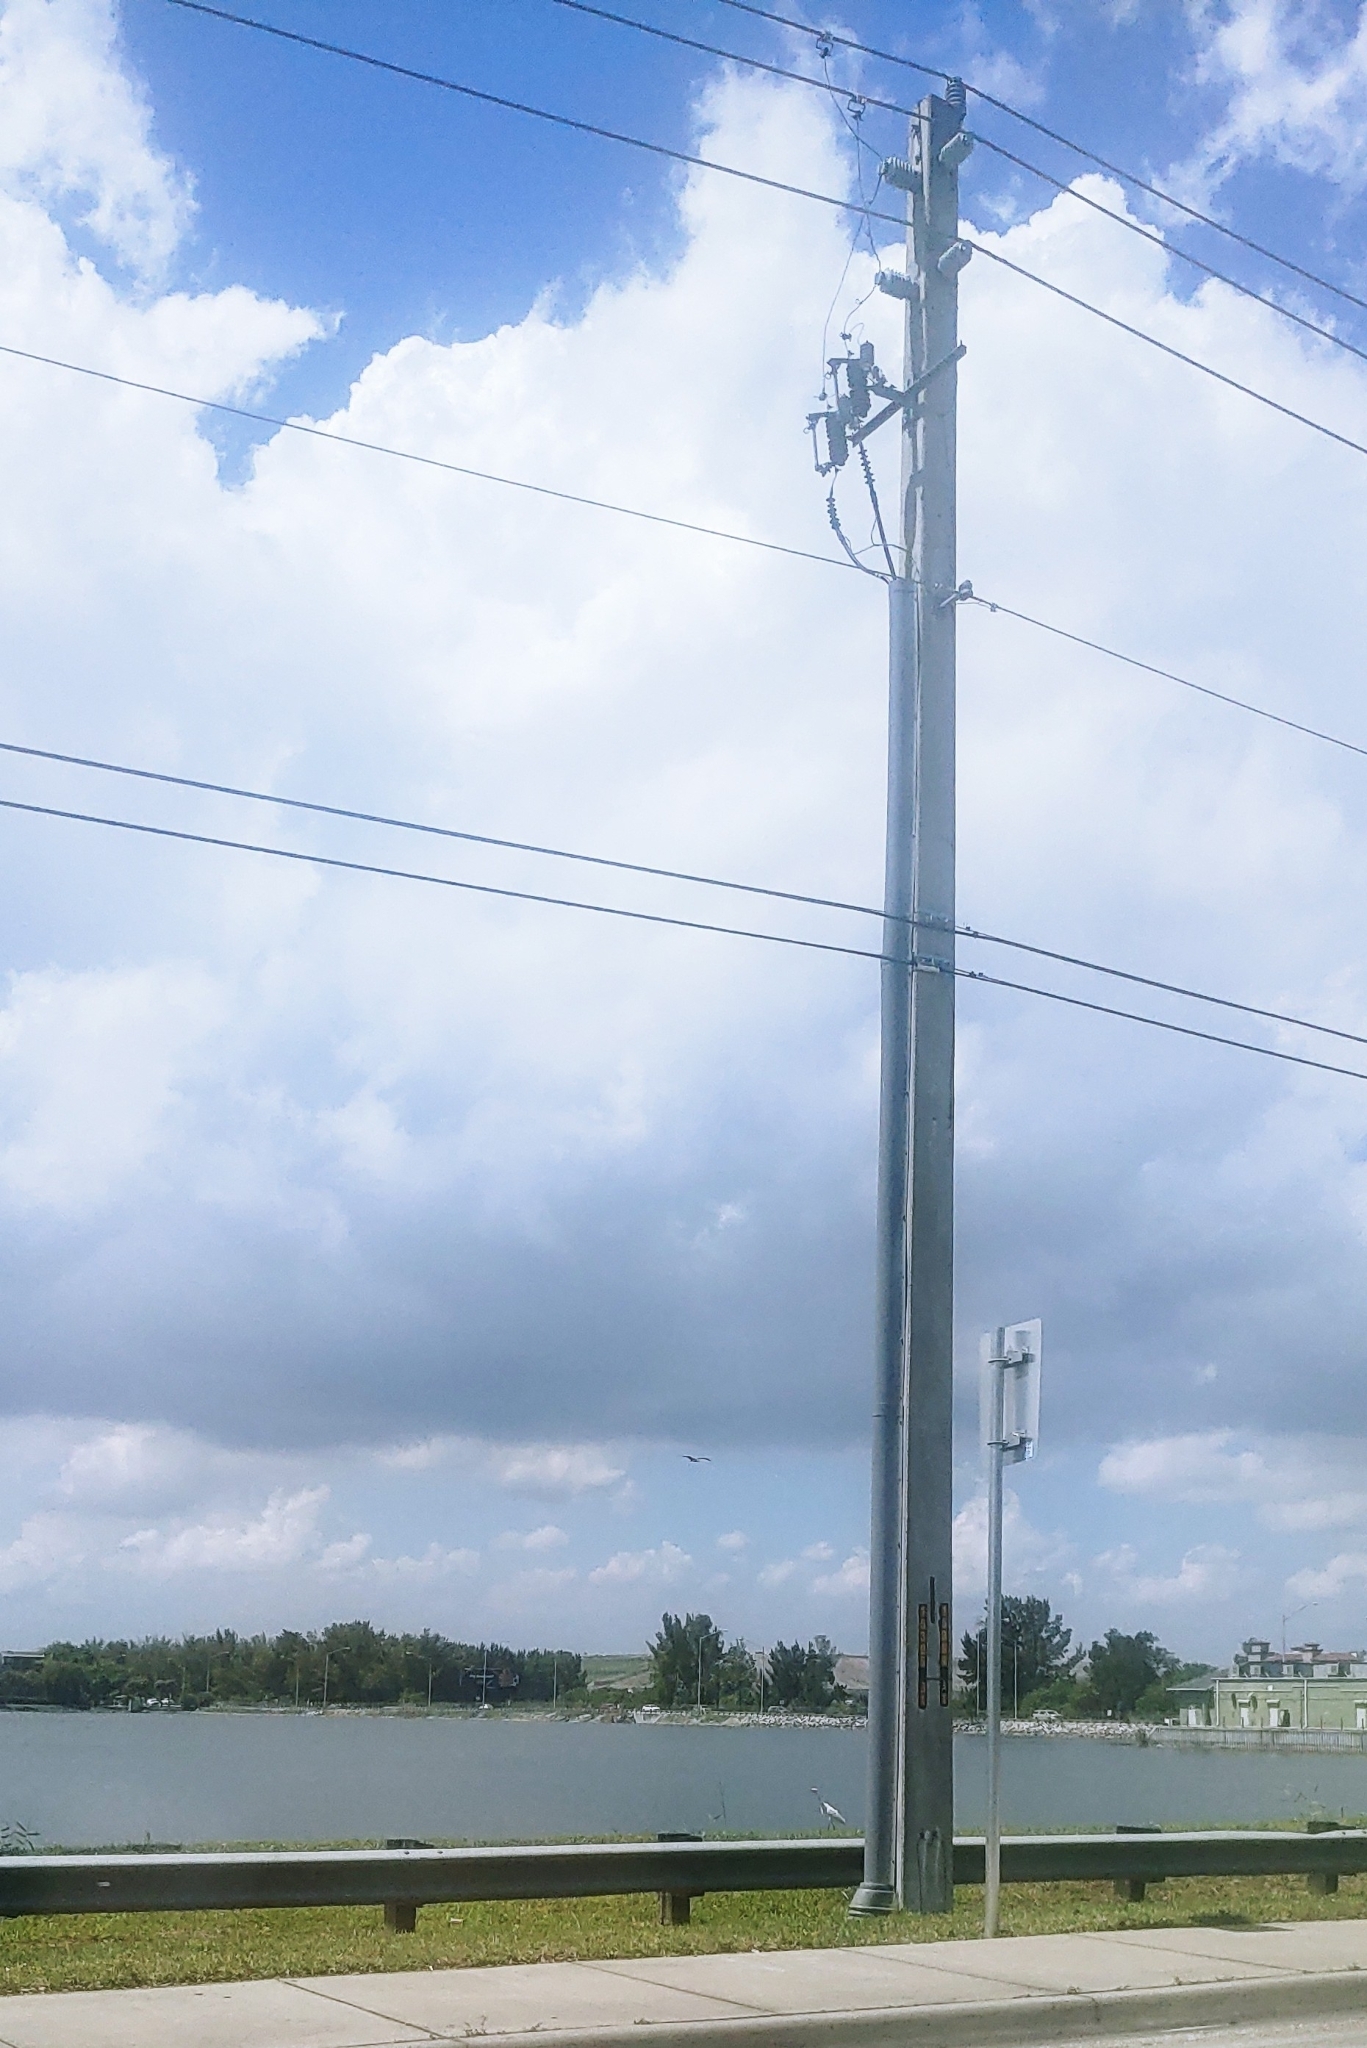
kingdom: Animalia
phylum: Chordata
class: Aves
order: Pelecaniformes
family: Ardeidae
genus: Ardea
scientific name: Ardea alba
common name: Great egret
